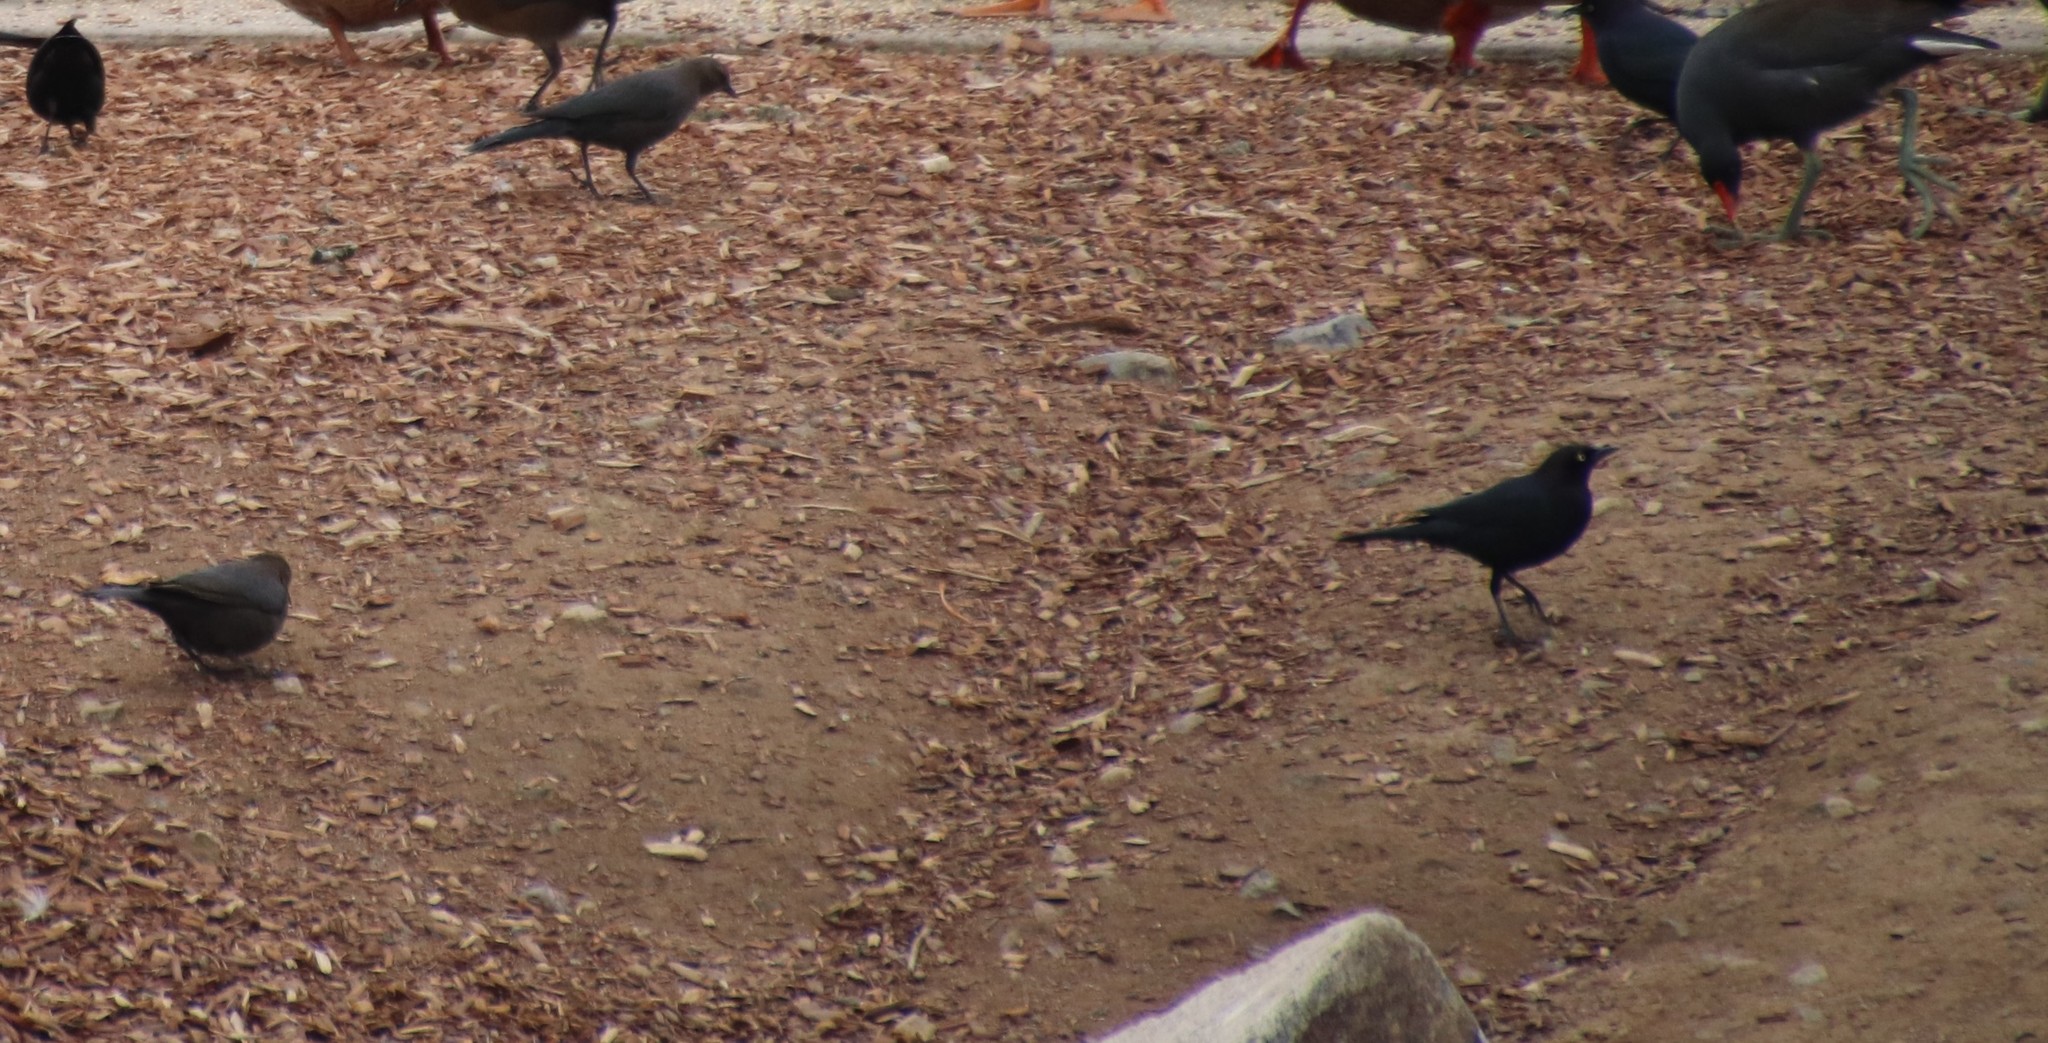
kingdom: Animalia
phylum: Chordata
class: Aves
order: Passeriformes
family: Icteridae
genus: Euphagus
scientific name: Euphagus cyanocephalus
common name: Brewer's blackbird
